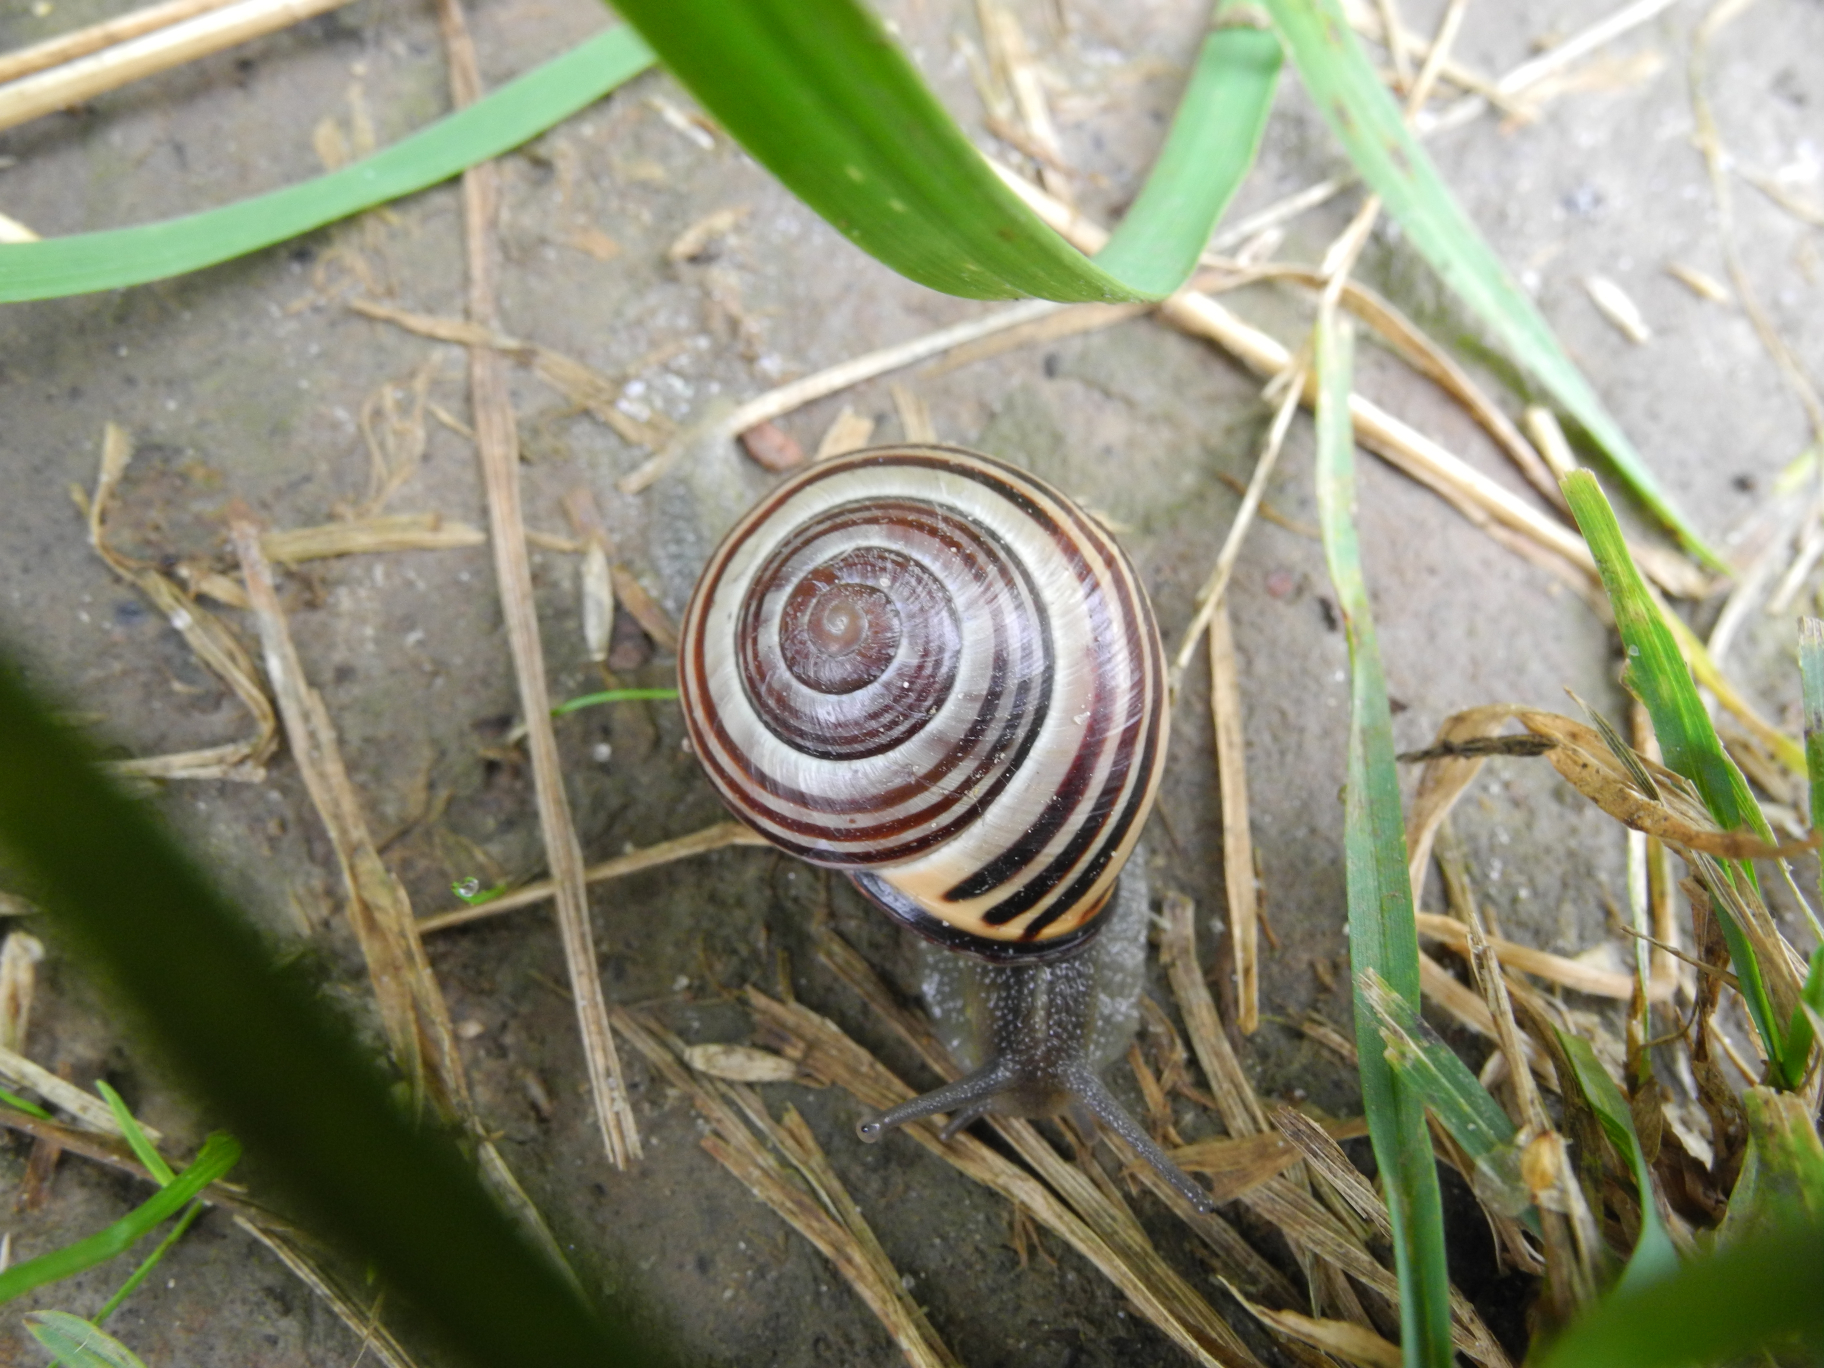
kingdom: Animalia
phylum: Mollusca
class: Gastropoda
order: Stylommatophora
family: Helicidae
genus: Cepaea
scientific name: Cepaea nemoralis
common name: Grovesnail
